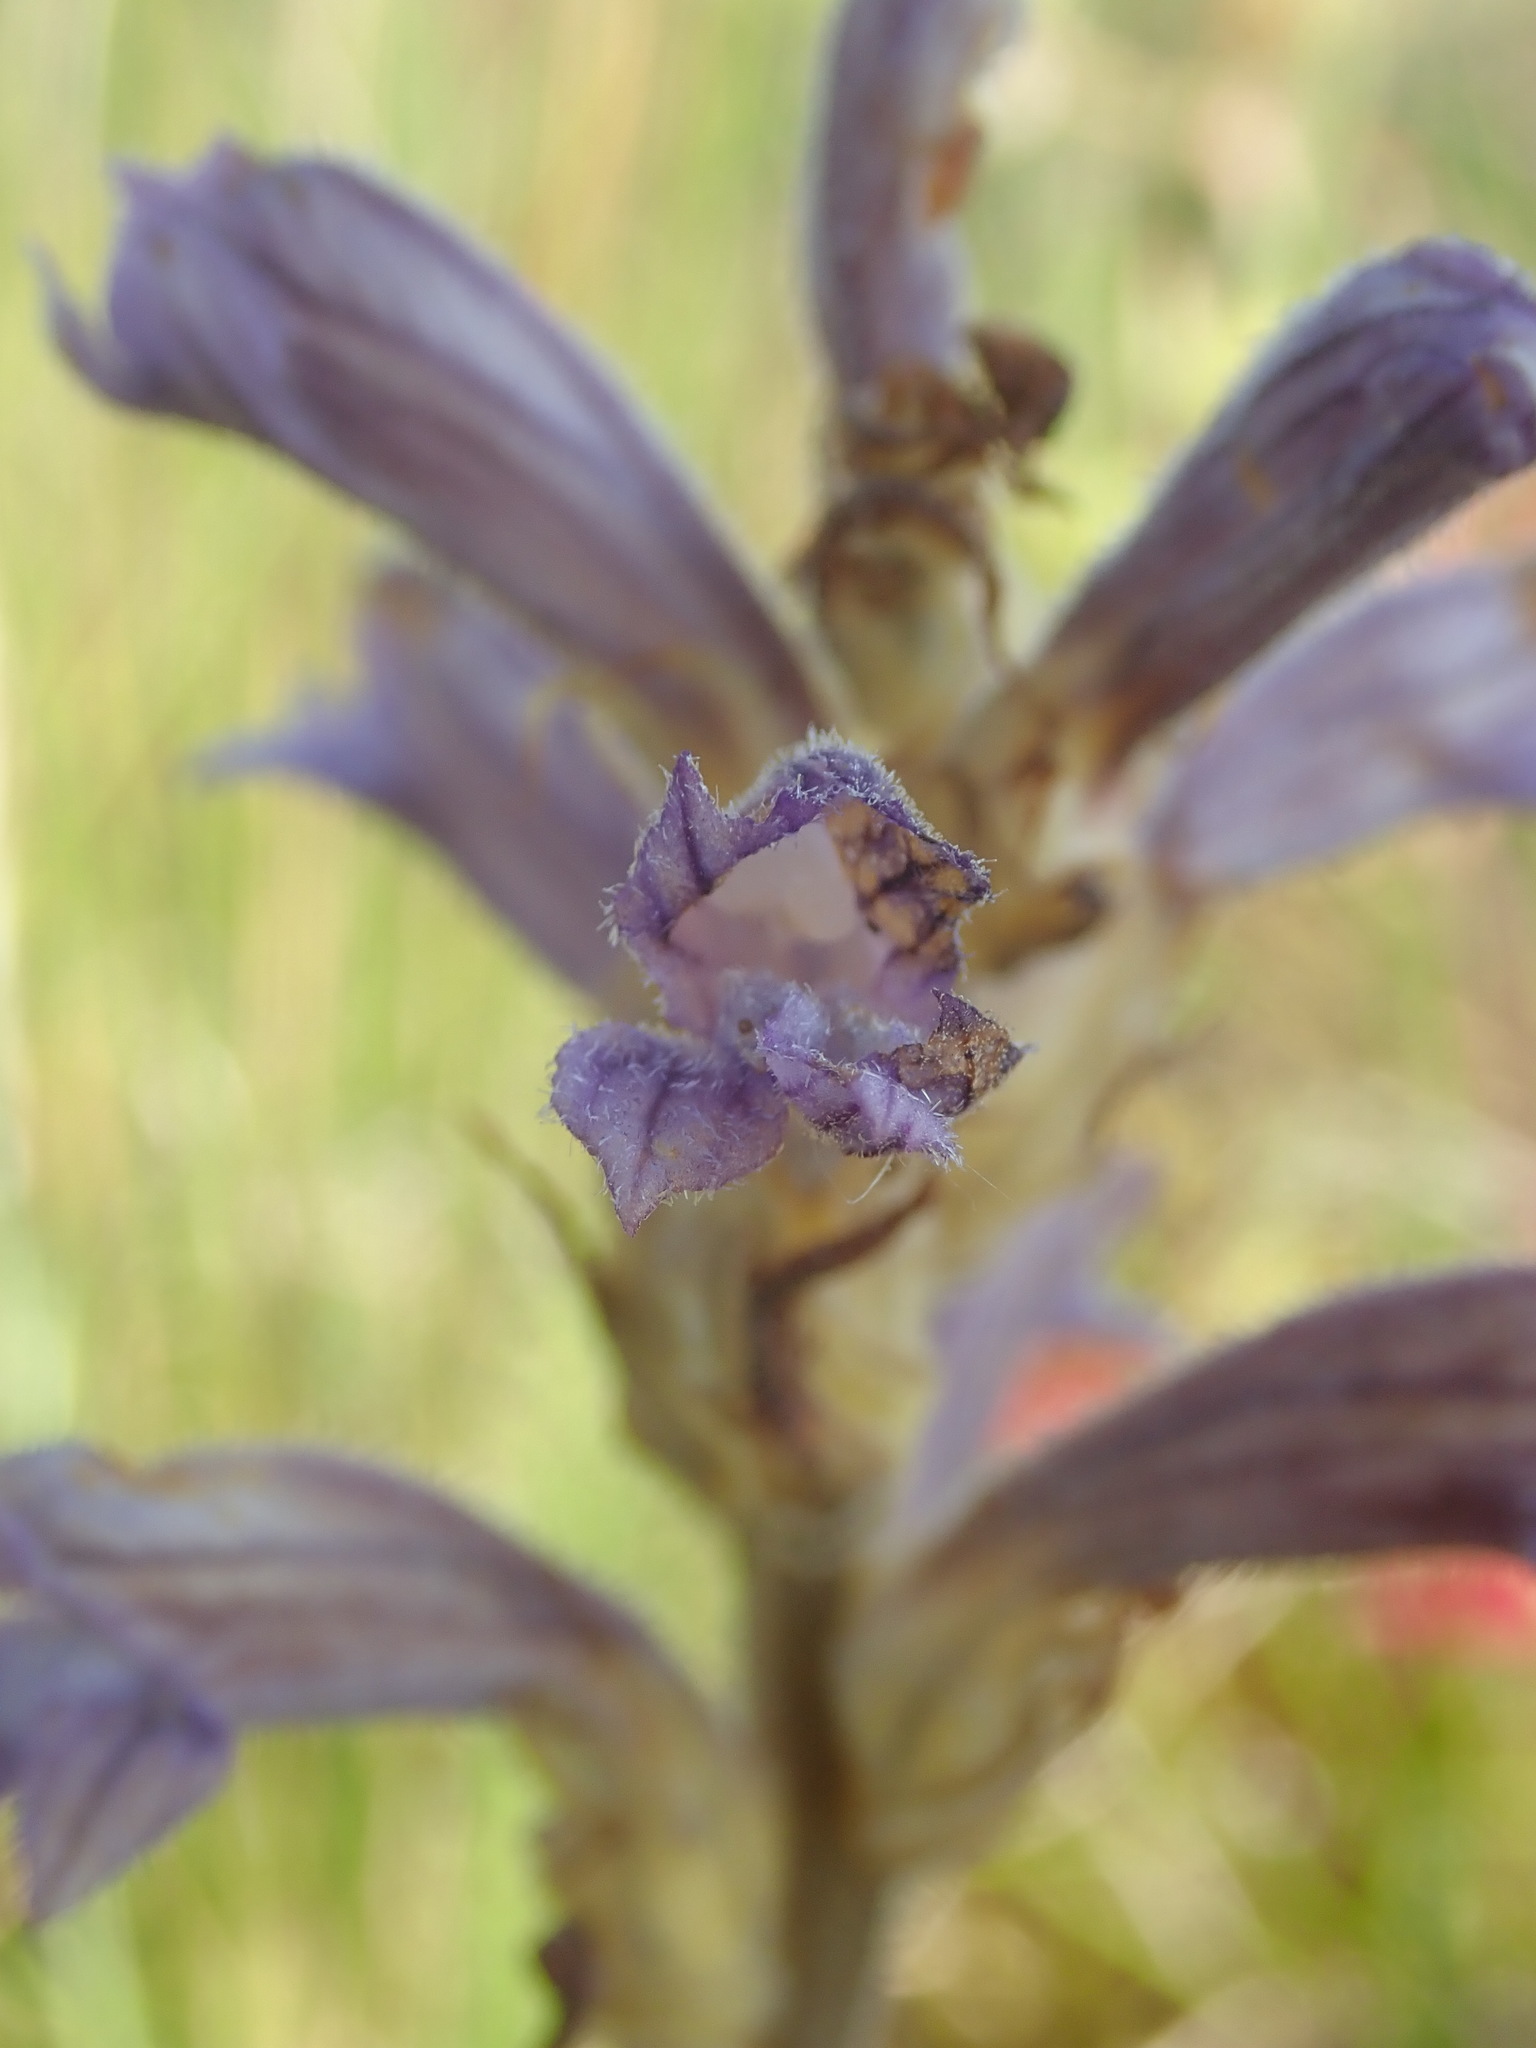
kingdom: Plantae
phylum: Tracheophyta
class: Magnoliopsida
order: Lamiales
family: Orobanchaceae
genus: Phelipanche
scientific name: Phelipanche purpurea
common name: Purple broomrape
